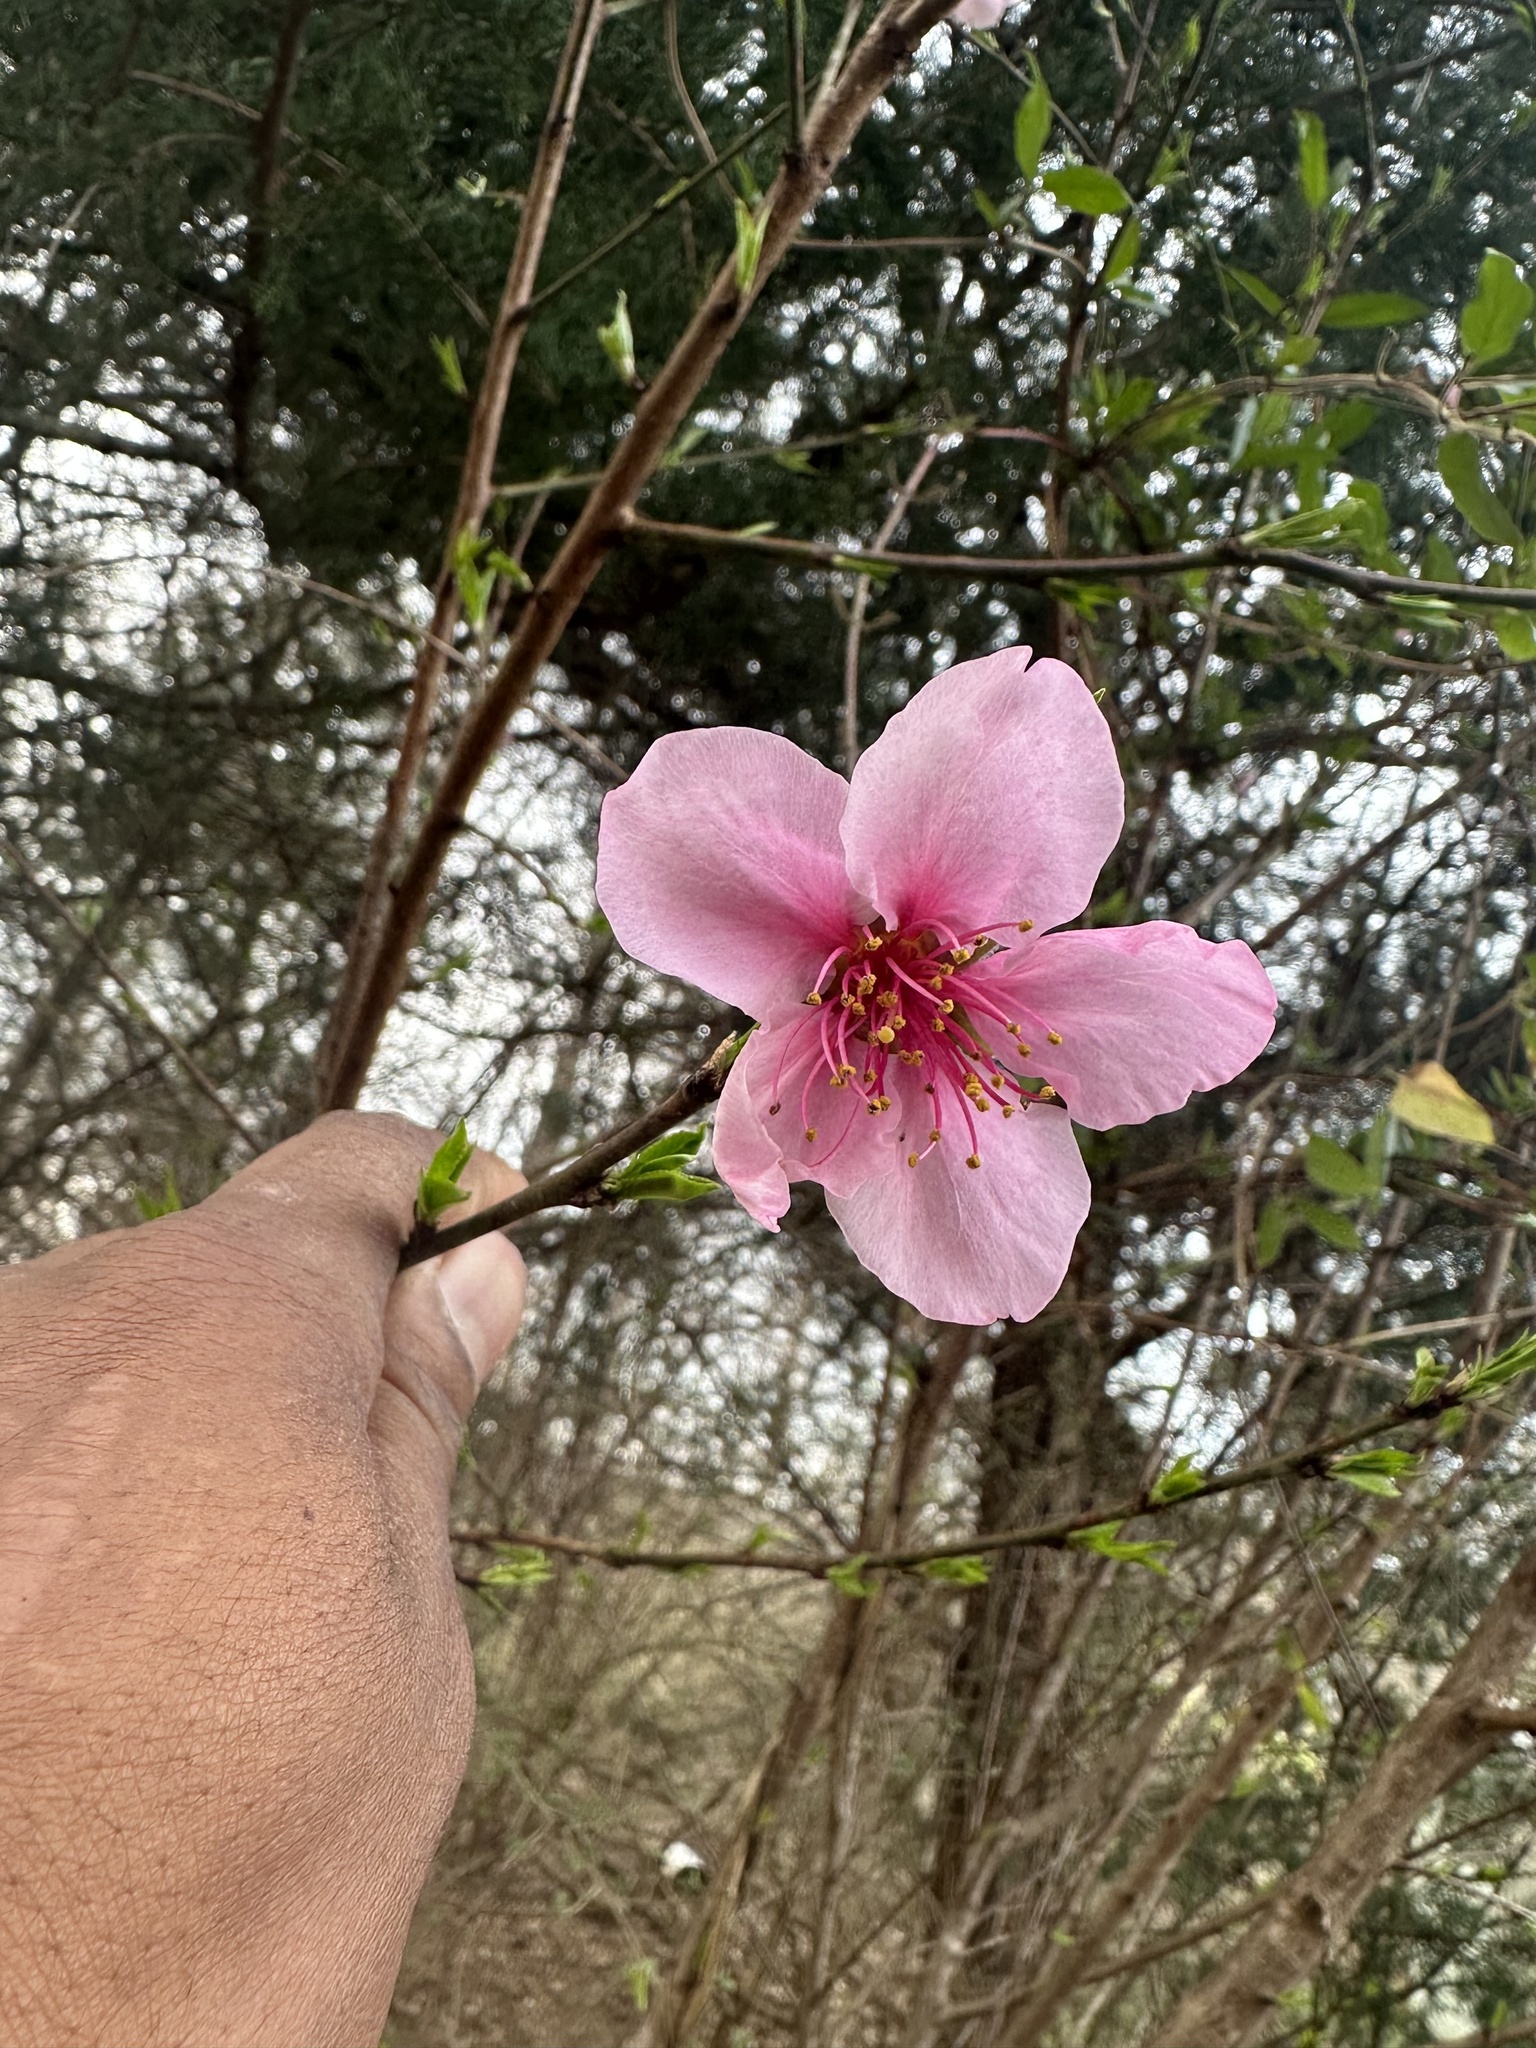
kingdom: Plantae
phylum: Tracheophyta
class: Magnoliopsida
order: Rosales
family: Rosaceae
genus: Prunus
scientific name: Prunus persica
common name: Peach
